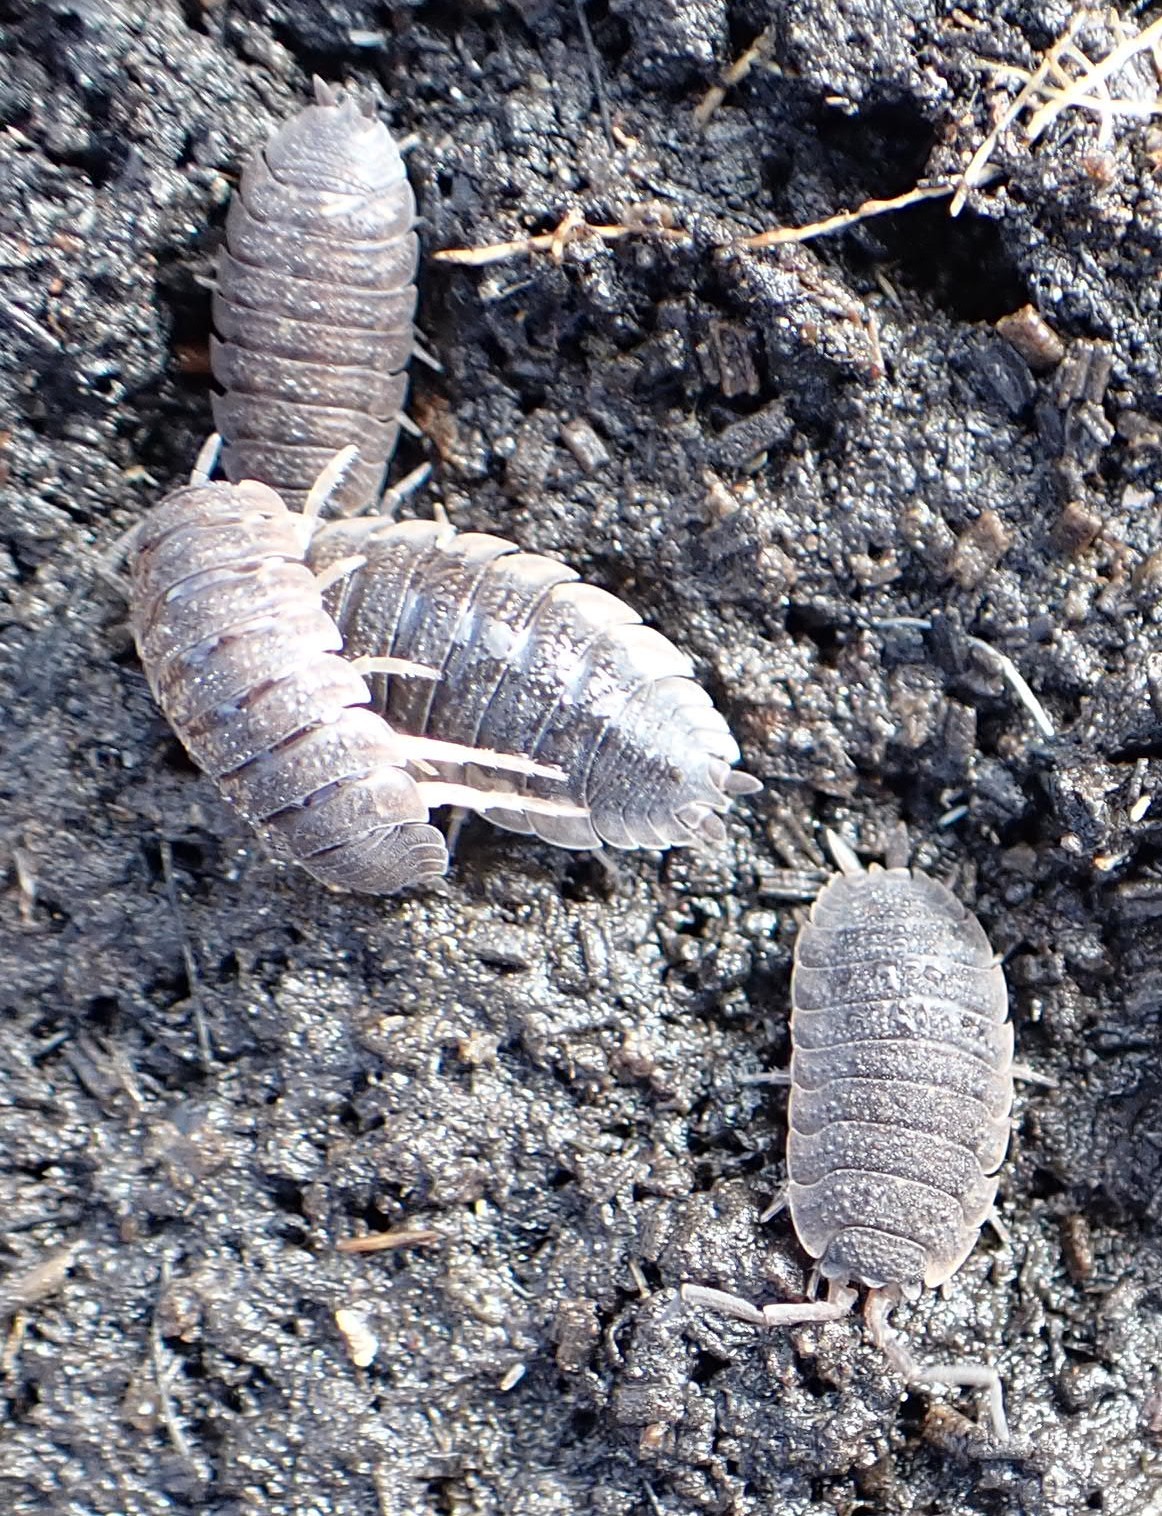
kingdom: Animalia
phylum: Arthropoda
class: Malacostraca
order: Isopoda
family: Porcellionidae
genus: Porcellio
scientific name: Porcellio scaber
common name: Common rough woodlouse
